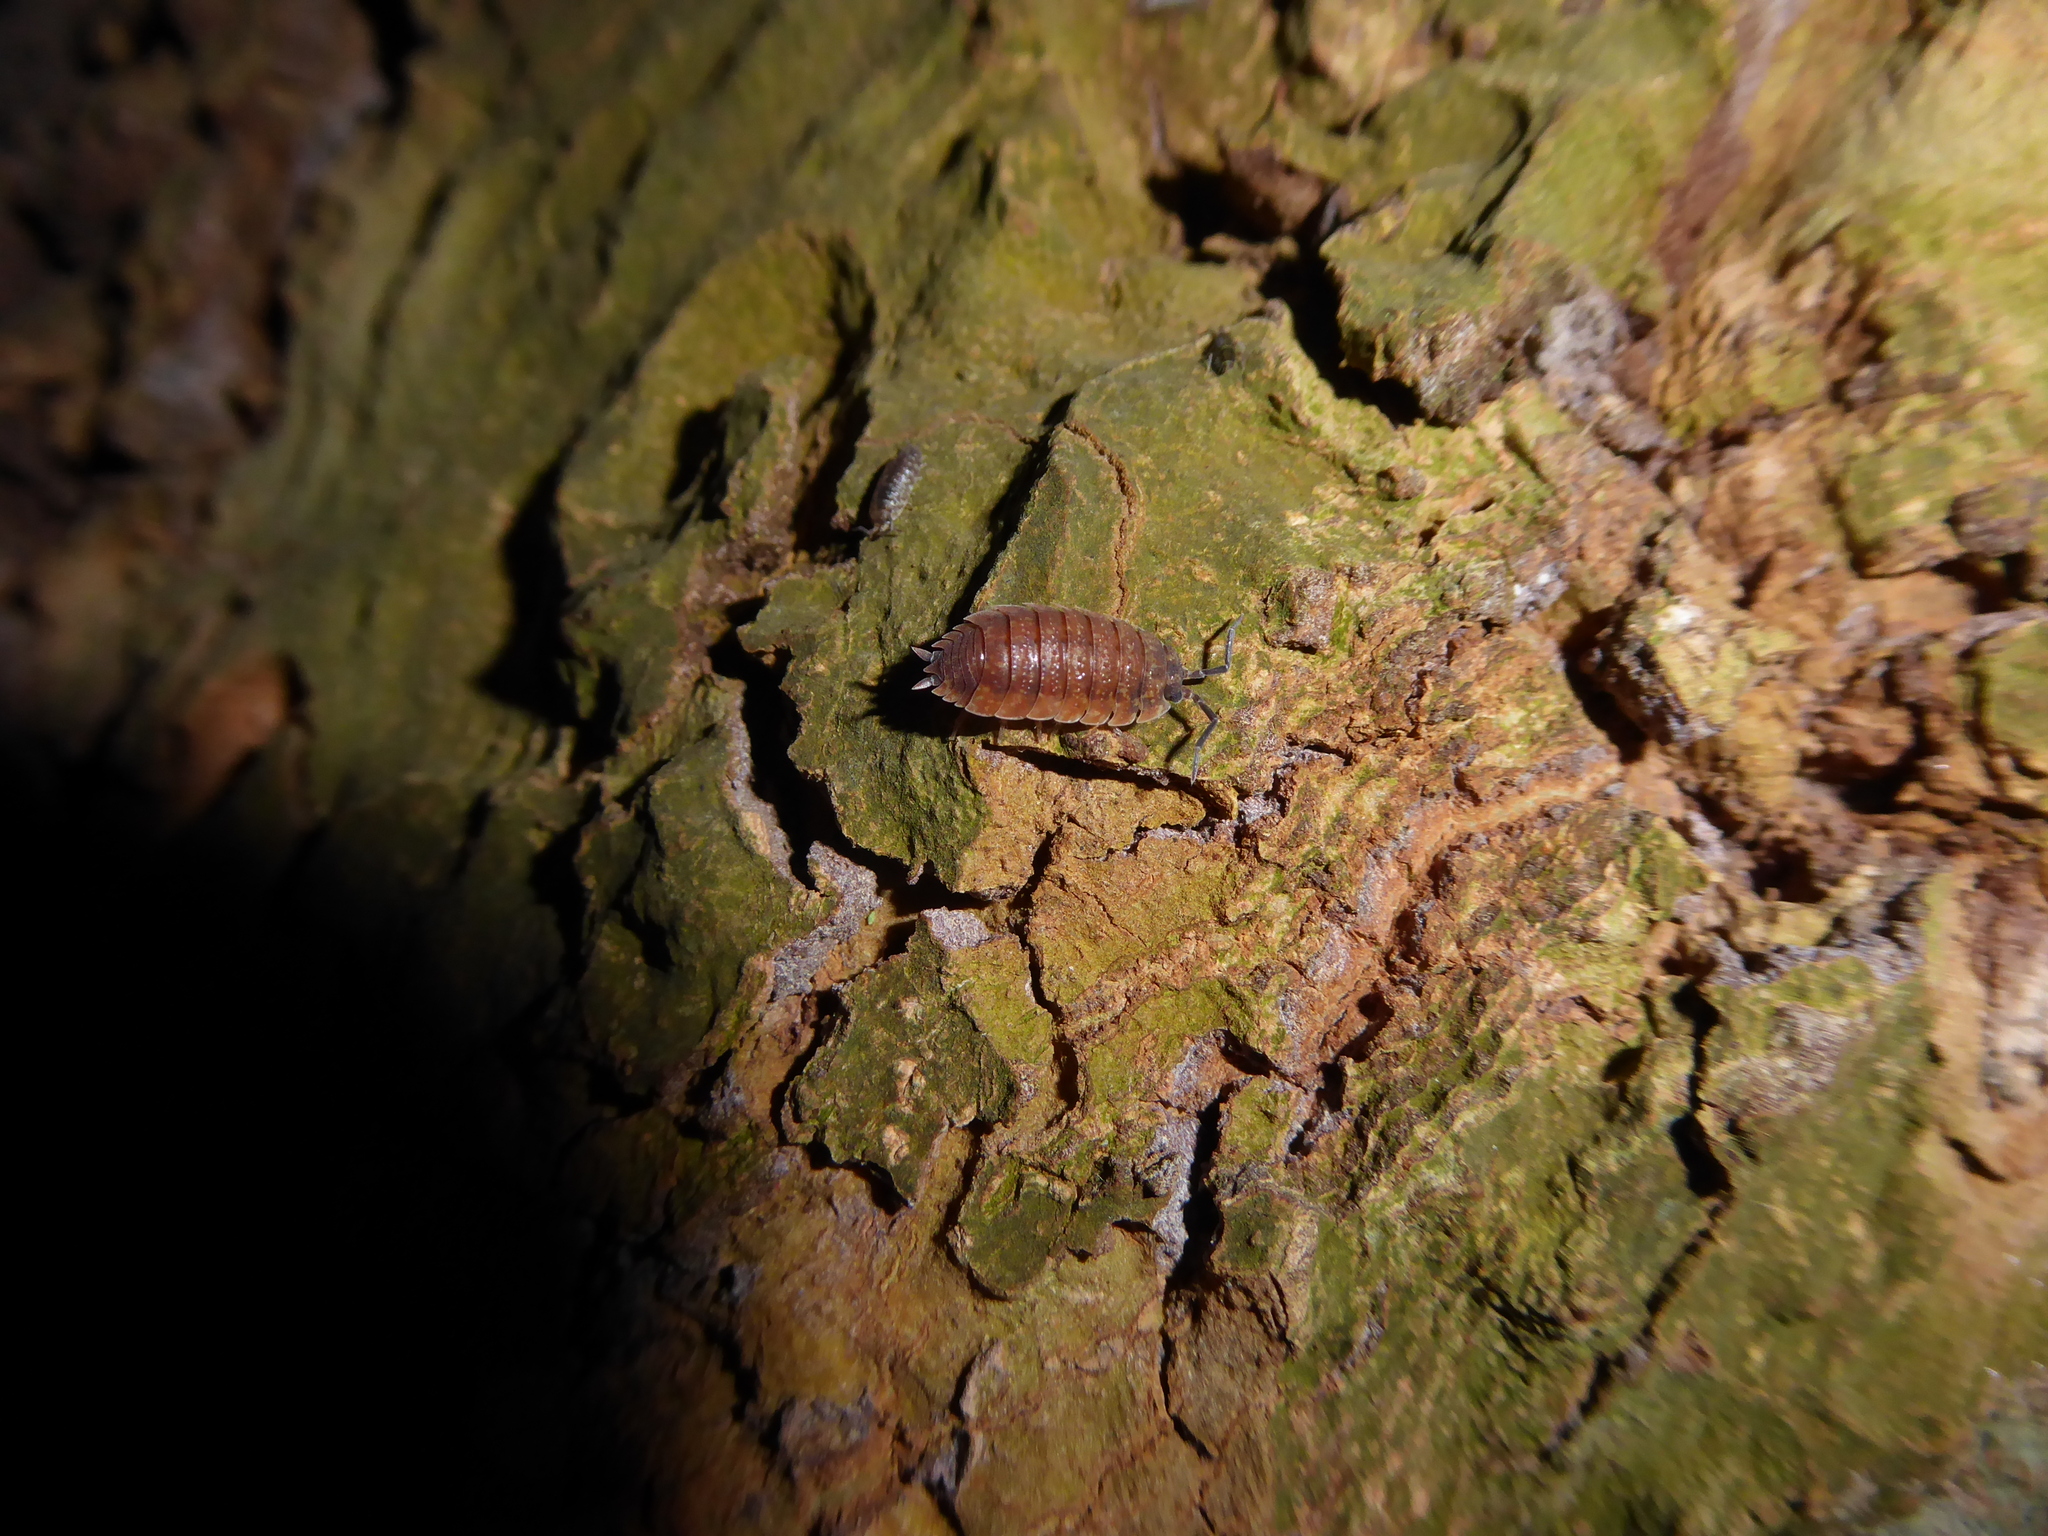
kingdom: Animalia
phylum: Arthropoda
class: Malacostraca
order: Isopoda
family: Porcellionidae
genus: Porcellio
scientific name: Porcellio scaber
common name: Common rough woodlouse
